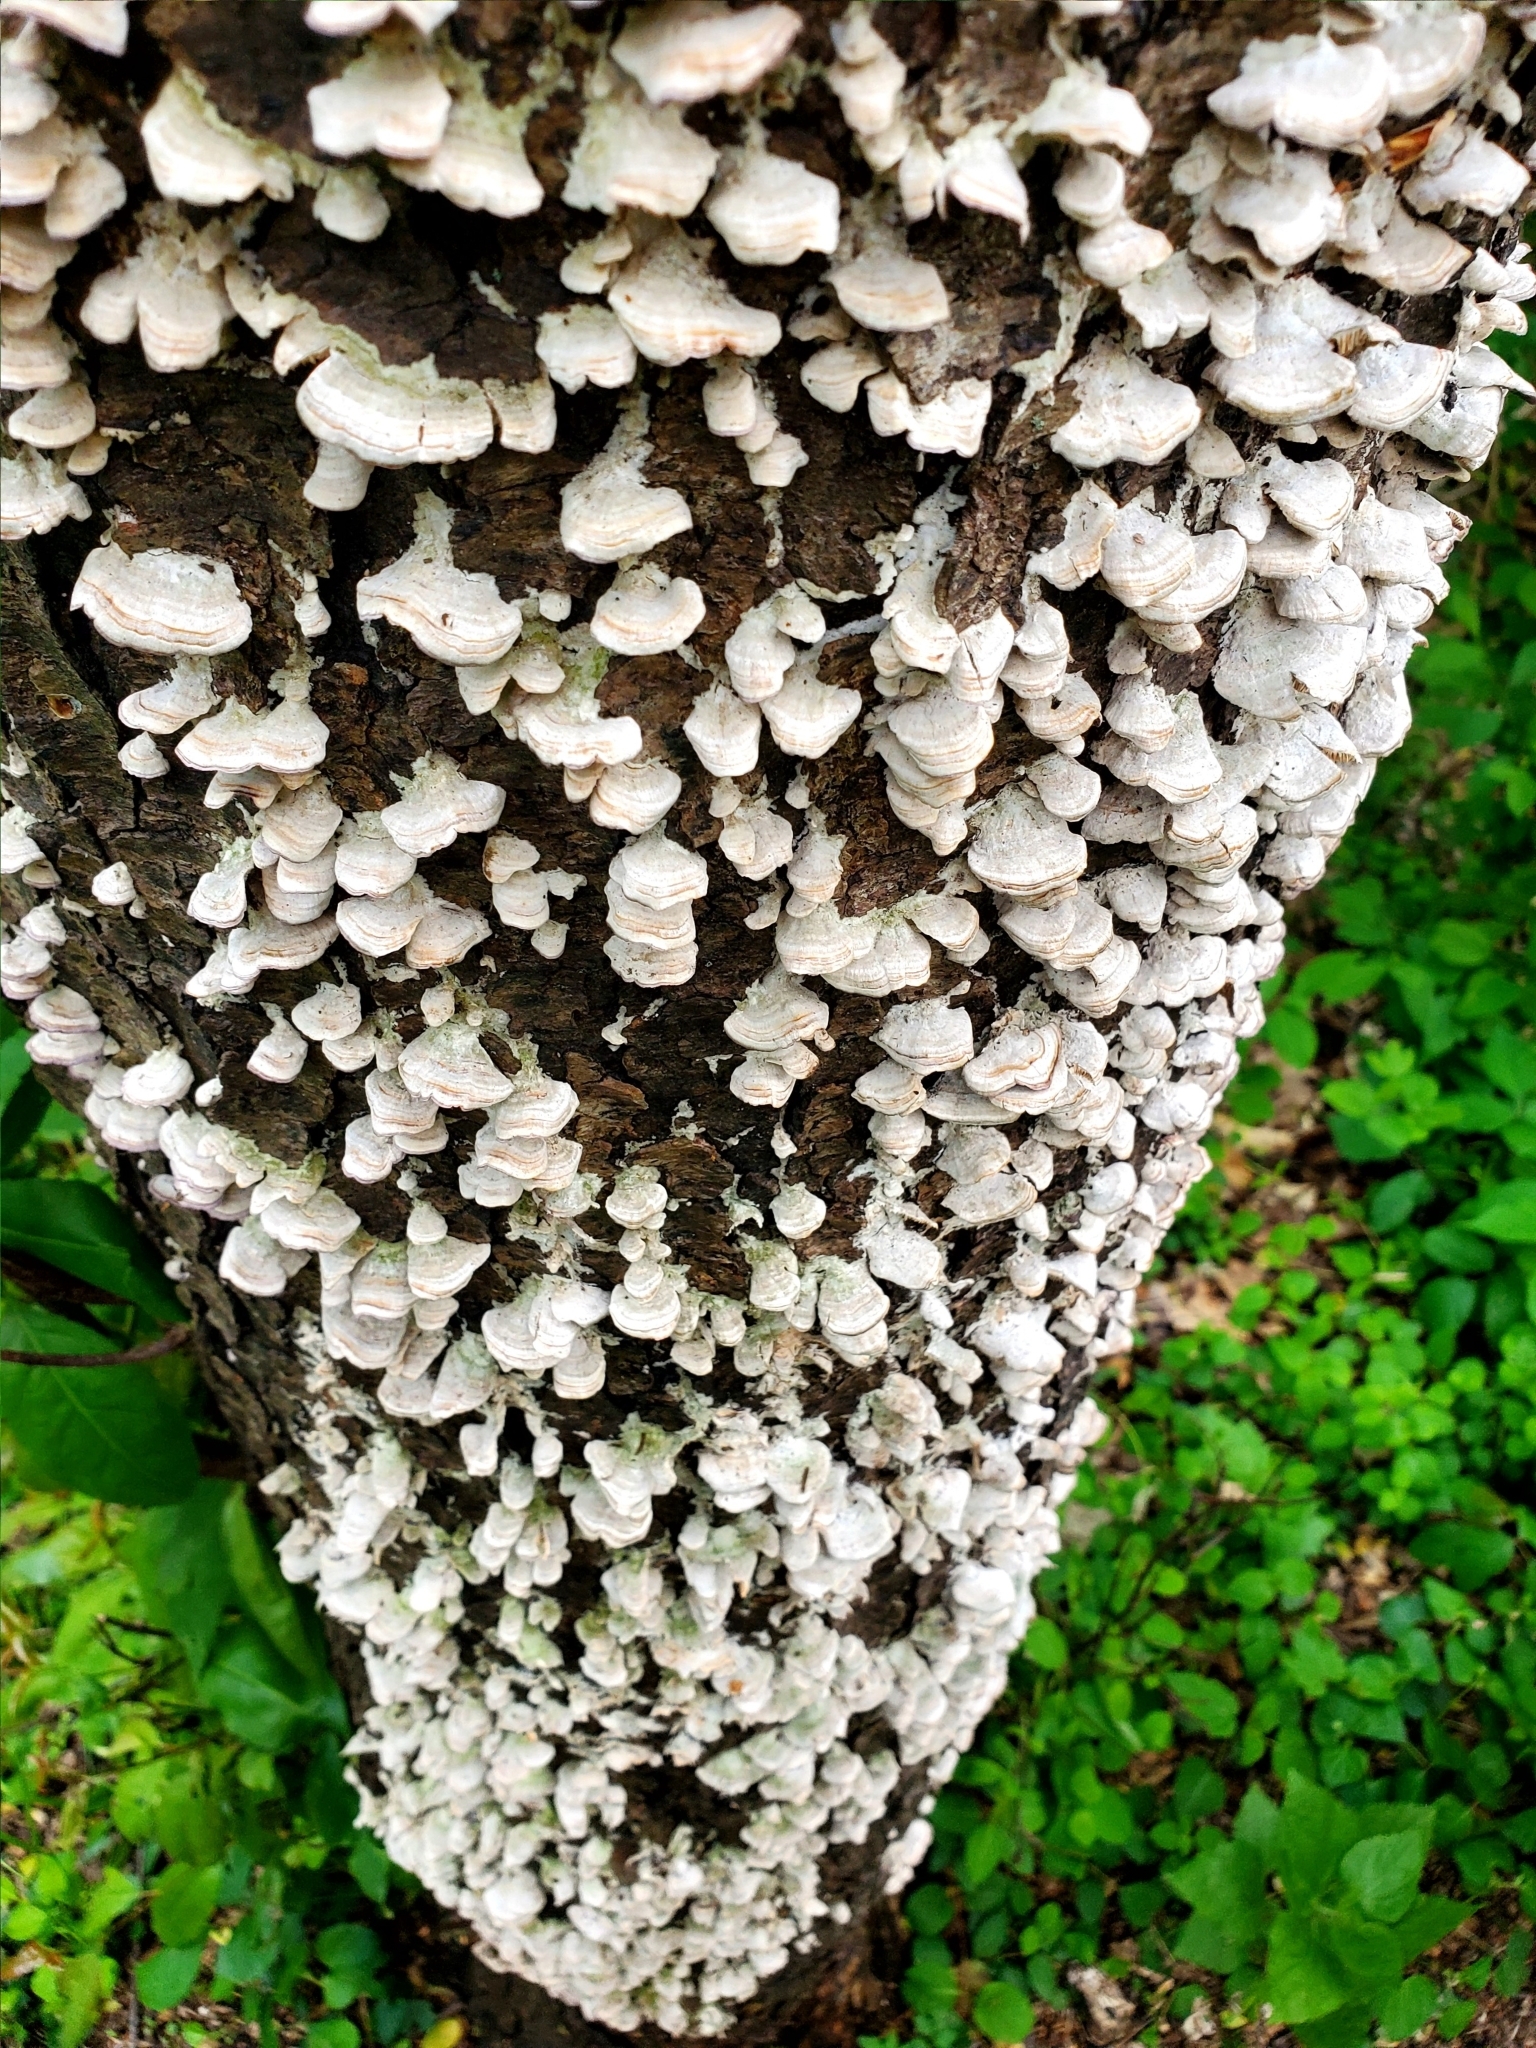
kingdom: Fungi
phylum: Basidiomycota
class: Agaricomycetes
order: Hymenochaetales
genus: Trichaptum
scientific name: Trichaptum biforme
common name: Violet-toothed polypore
